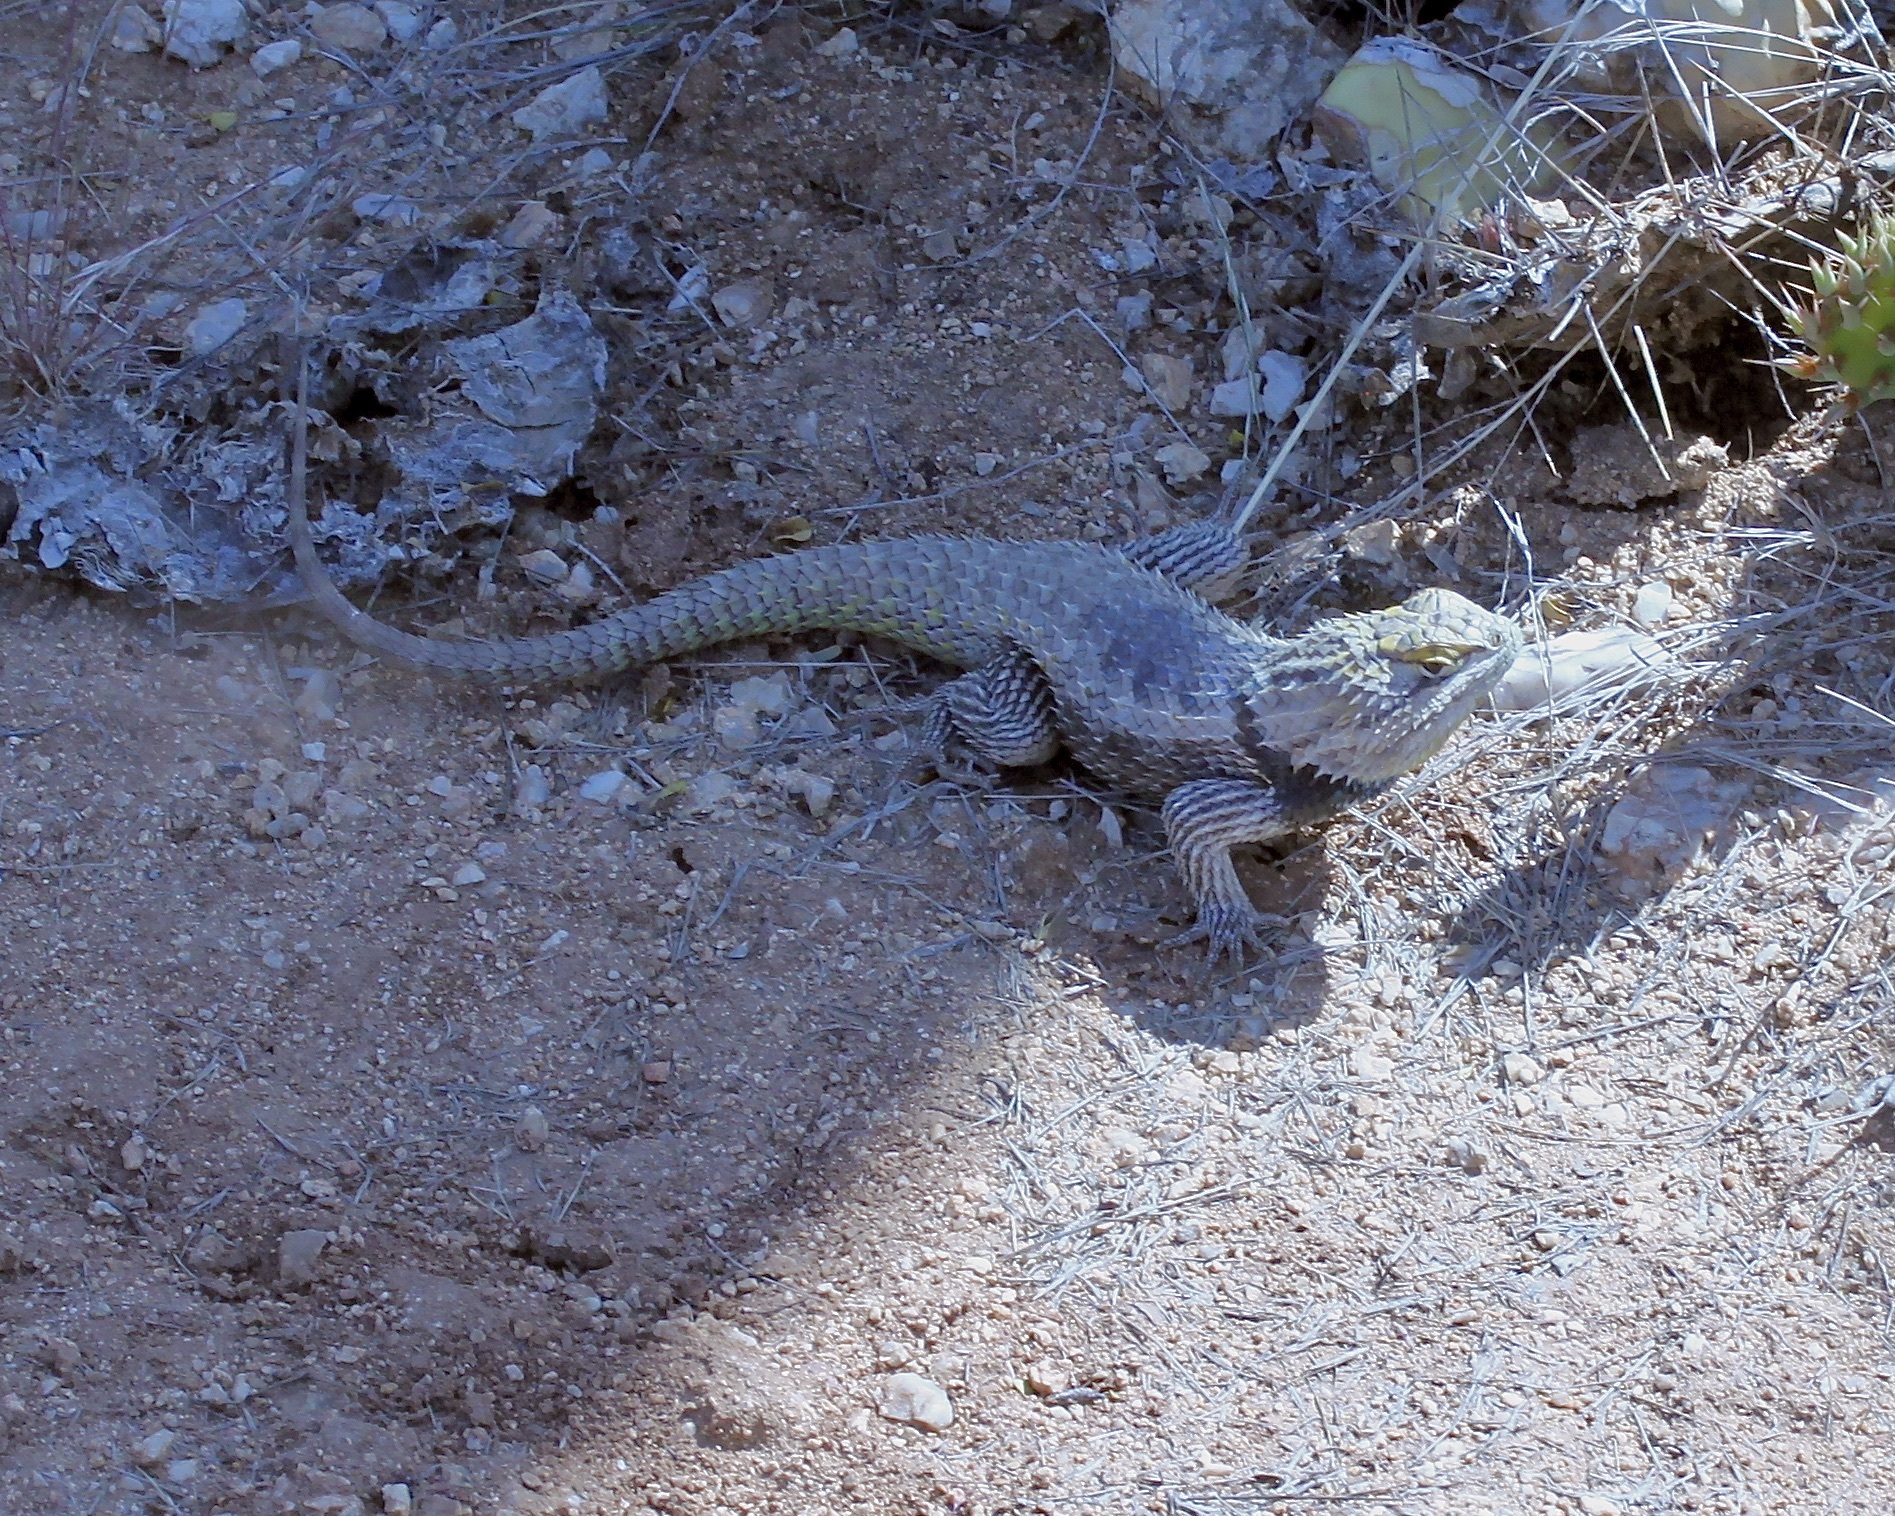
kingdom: Animalia
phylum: Chordata
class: Squamata
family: Phrynosomatidae
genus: Sceloporus
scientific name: Sceloporus magister
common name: Desert spiny lizard
